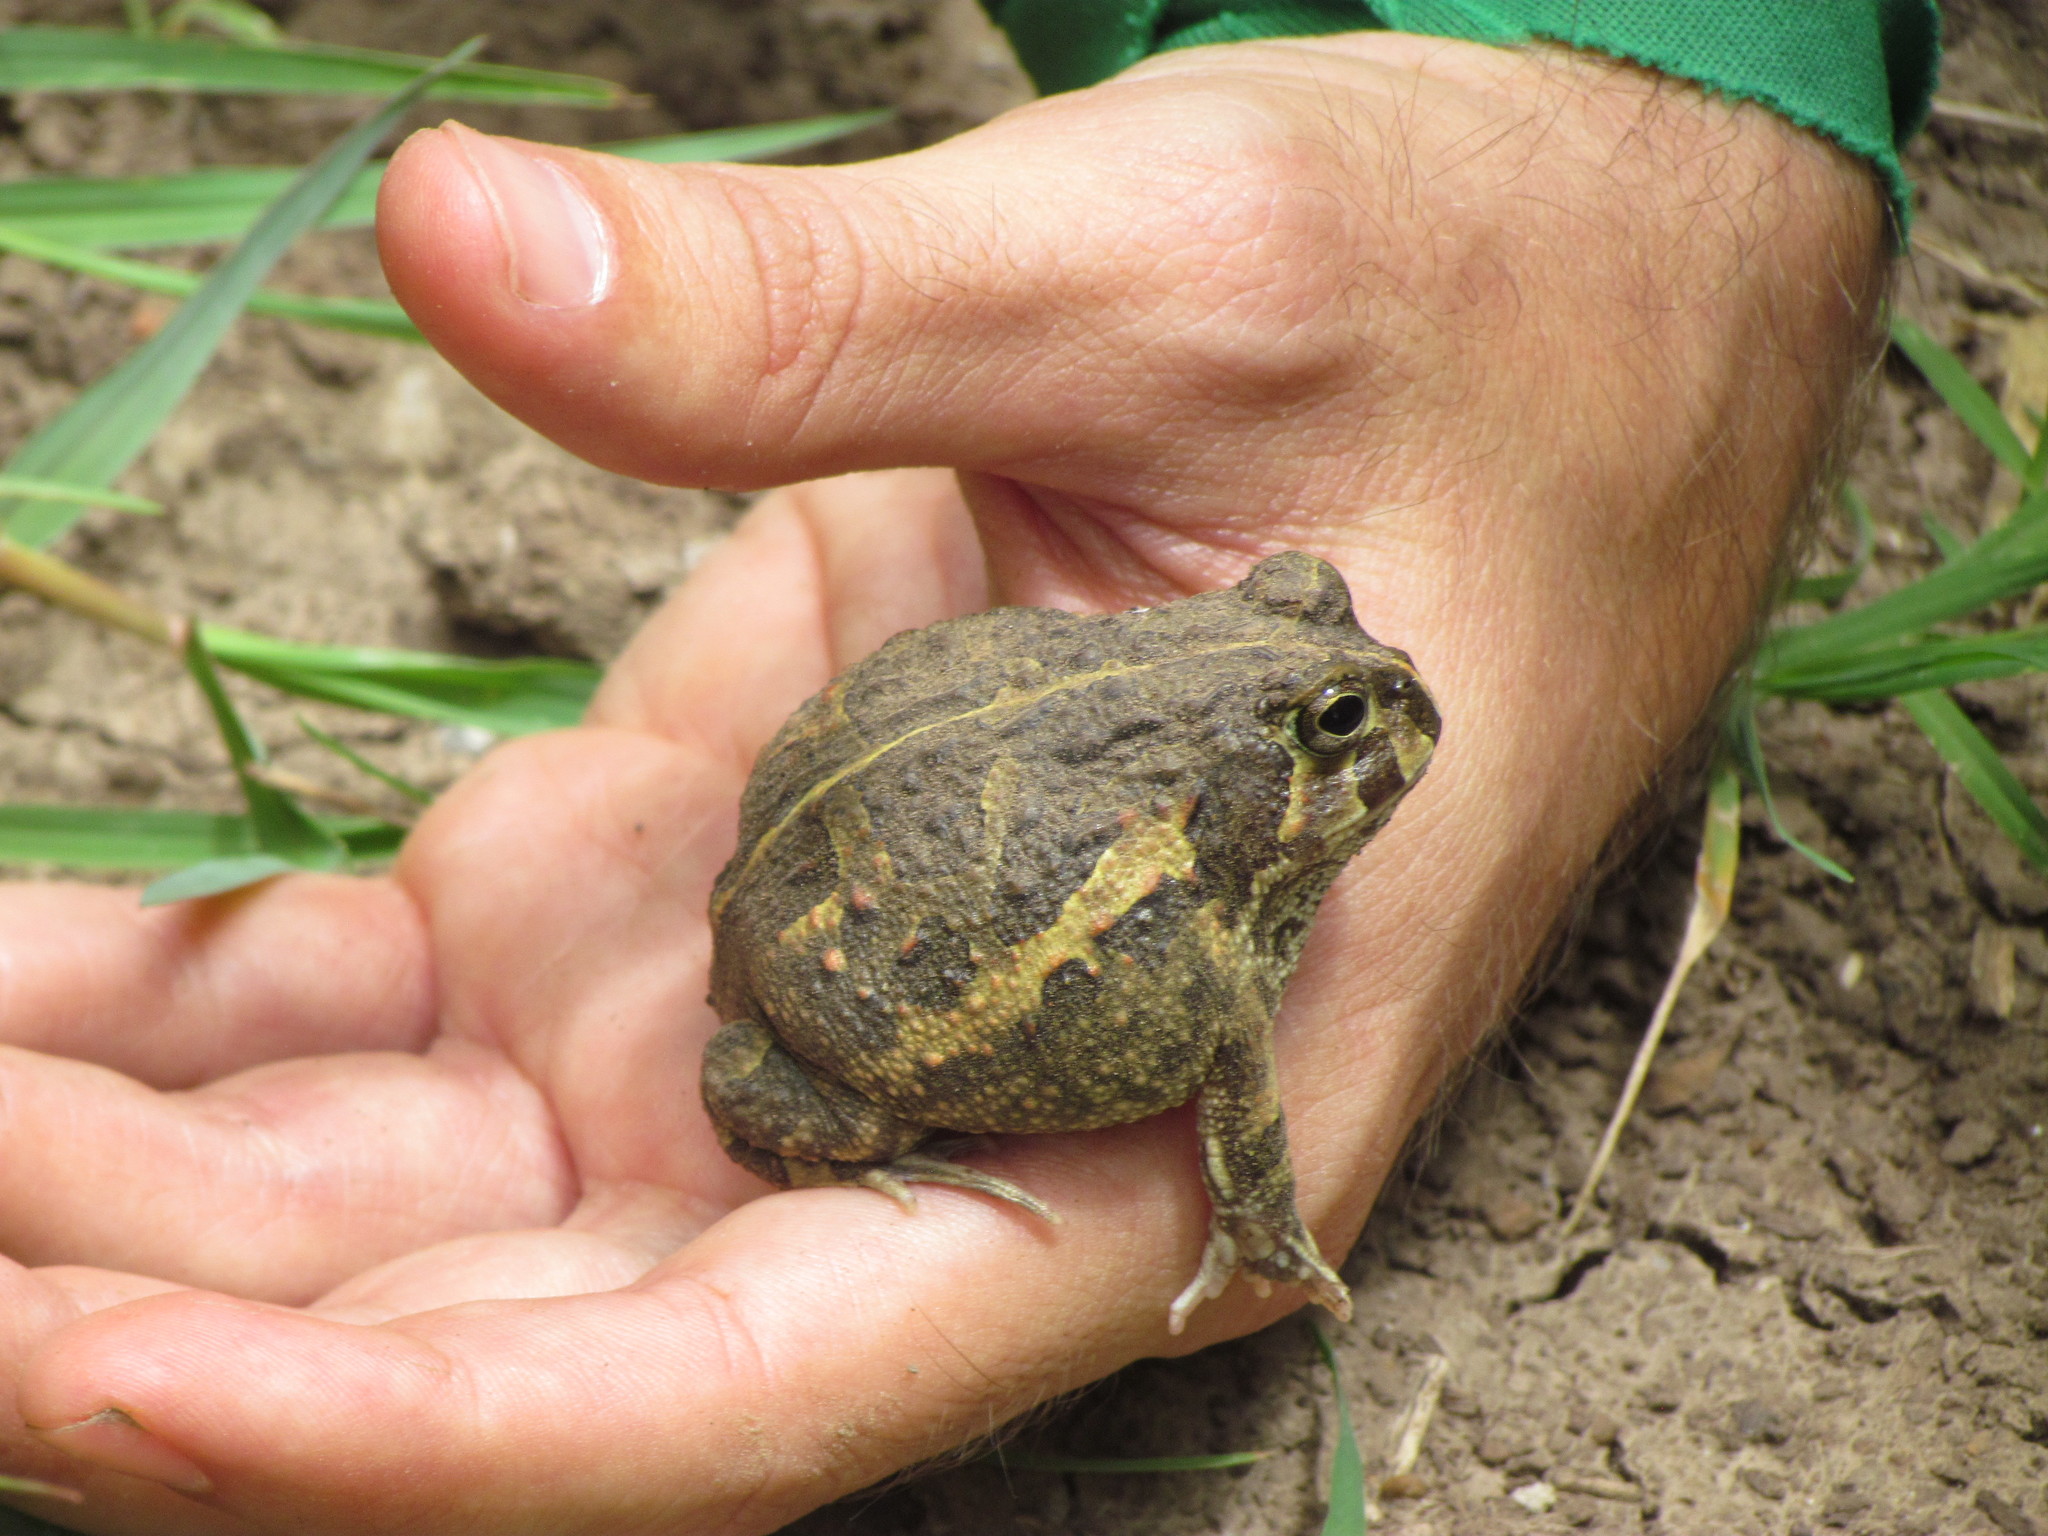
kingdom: Animalia
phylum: Chordata
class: Amphibia
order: Anura
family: Odontophrynidae
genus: Odontophrynus
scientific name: Odontophrynus
